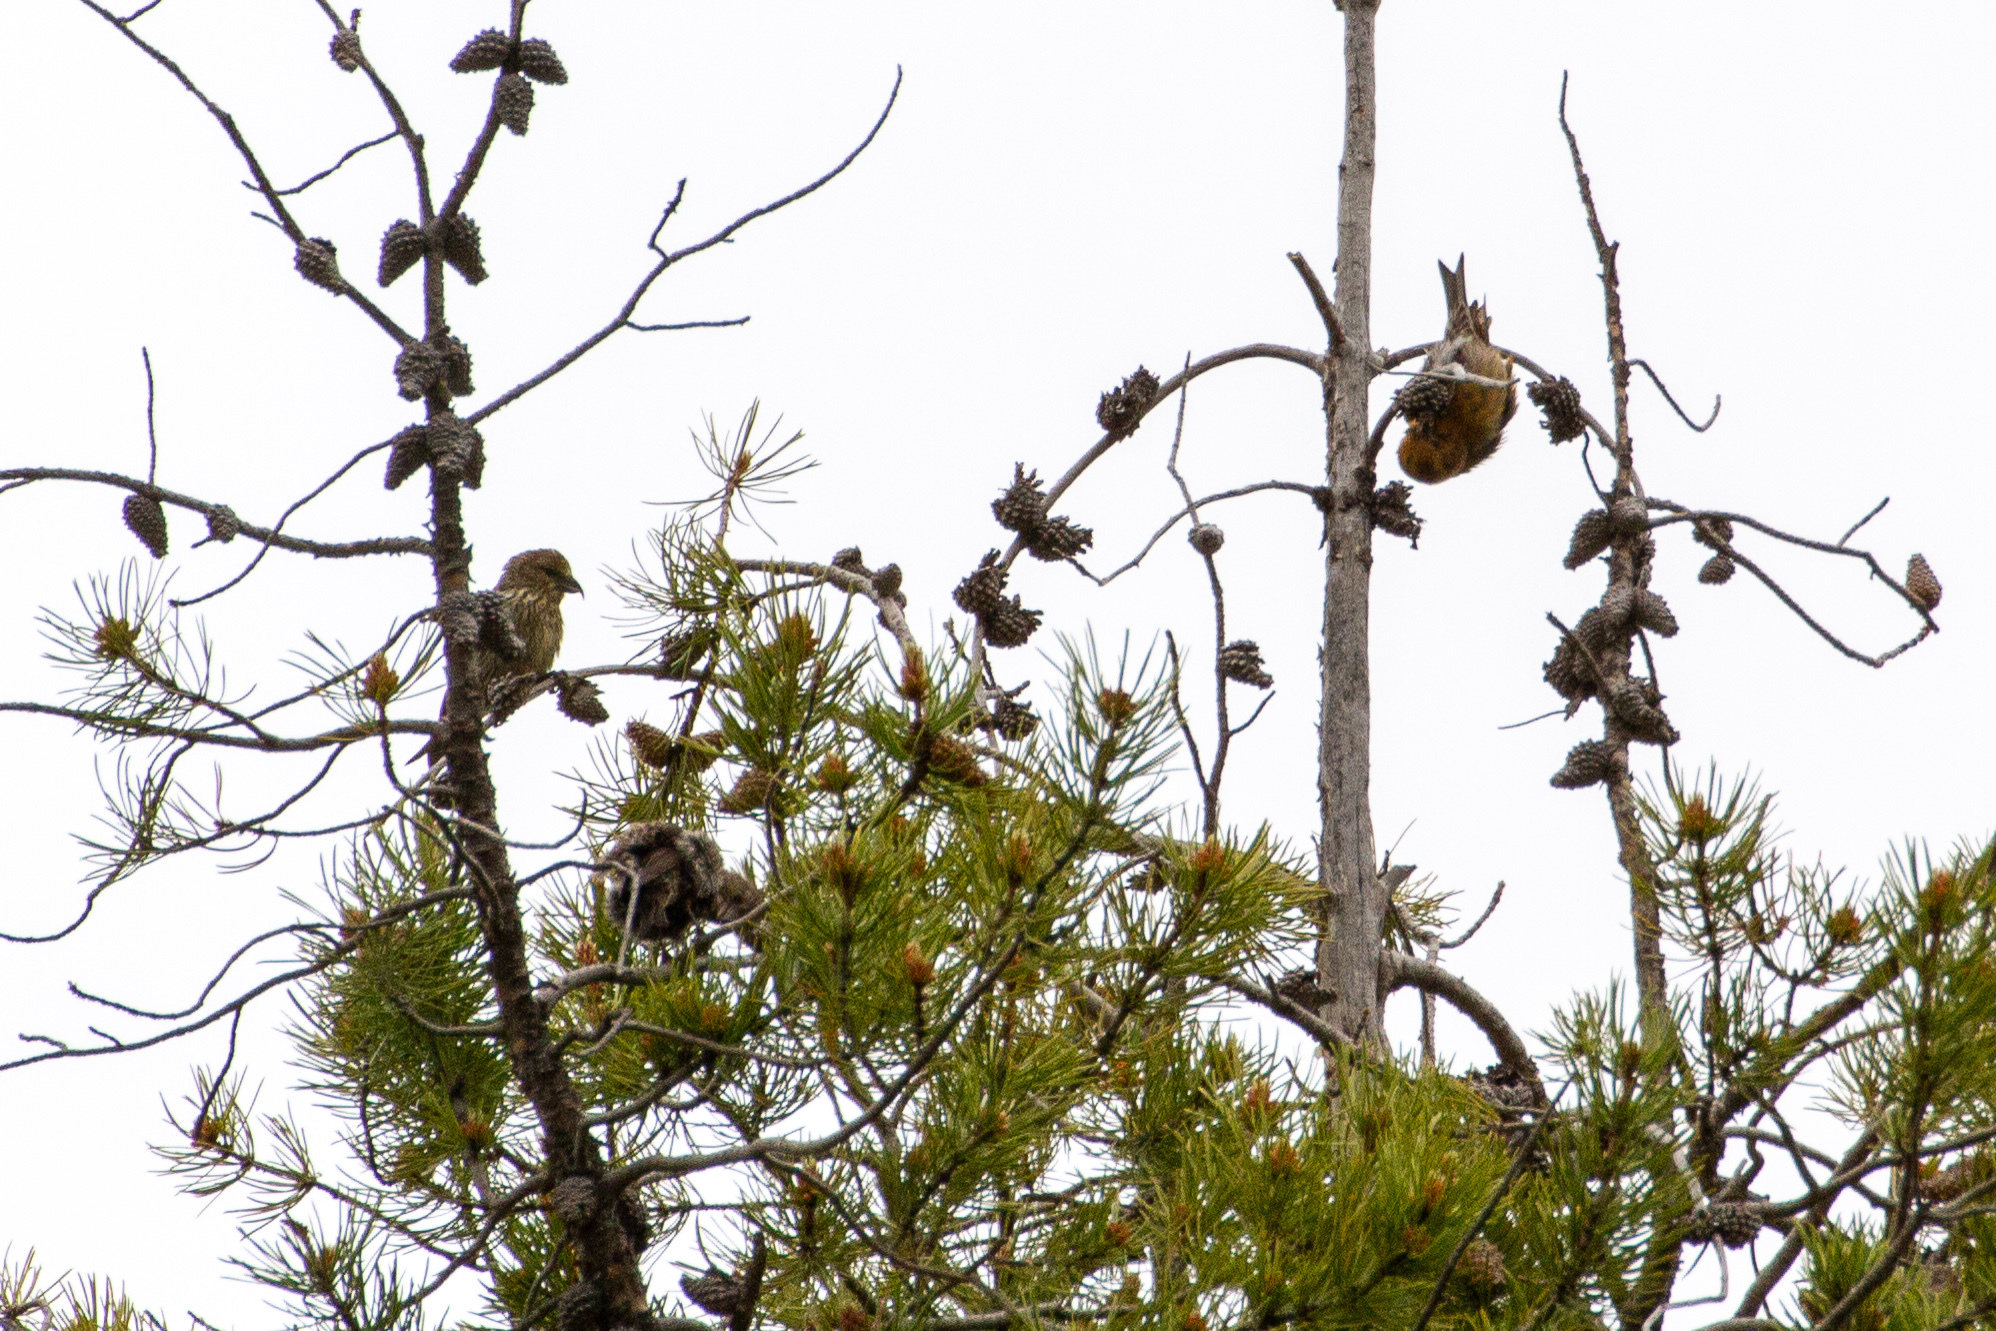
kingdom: Animalia
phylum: Chordata
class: Aves
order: Passeriformes
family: Fringillidae
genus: Loxia
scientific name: Loxia sinesciuris
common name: Cassia crossbill
